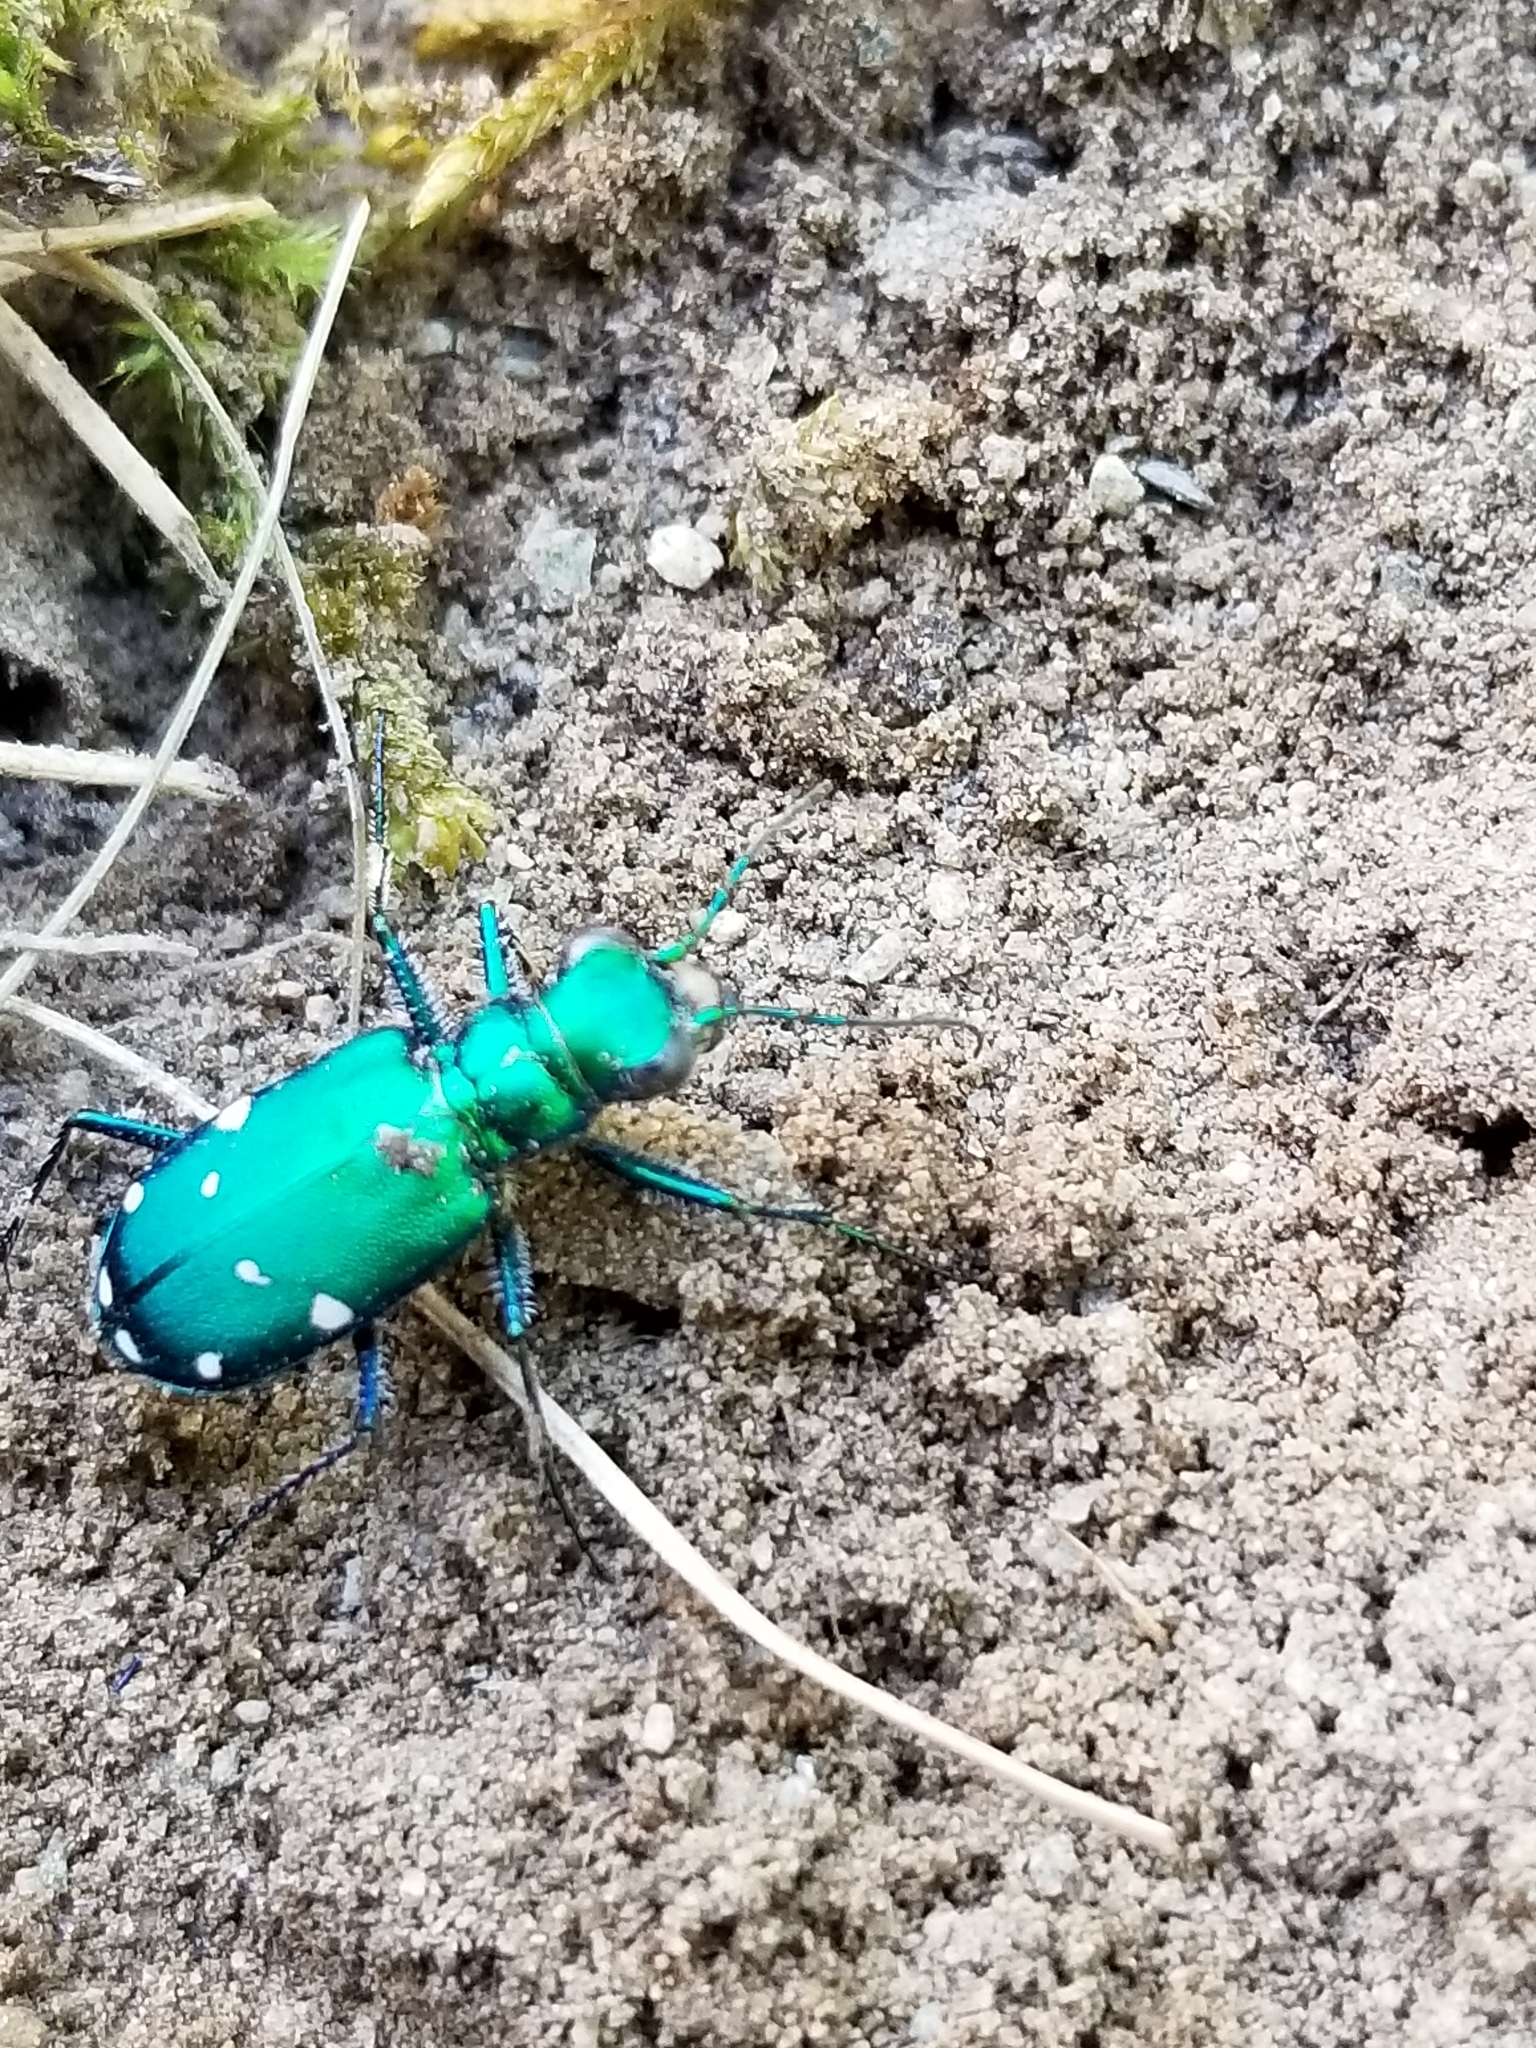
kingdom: Animalia
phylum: Arthropoda
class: Insecta
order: Coleoptera
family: Carabidae
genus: Cicindela
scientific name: Cicindela sexguttata
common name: Six-spotted tiger beetle
